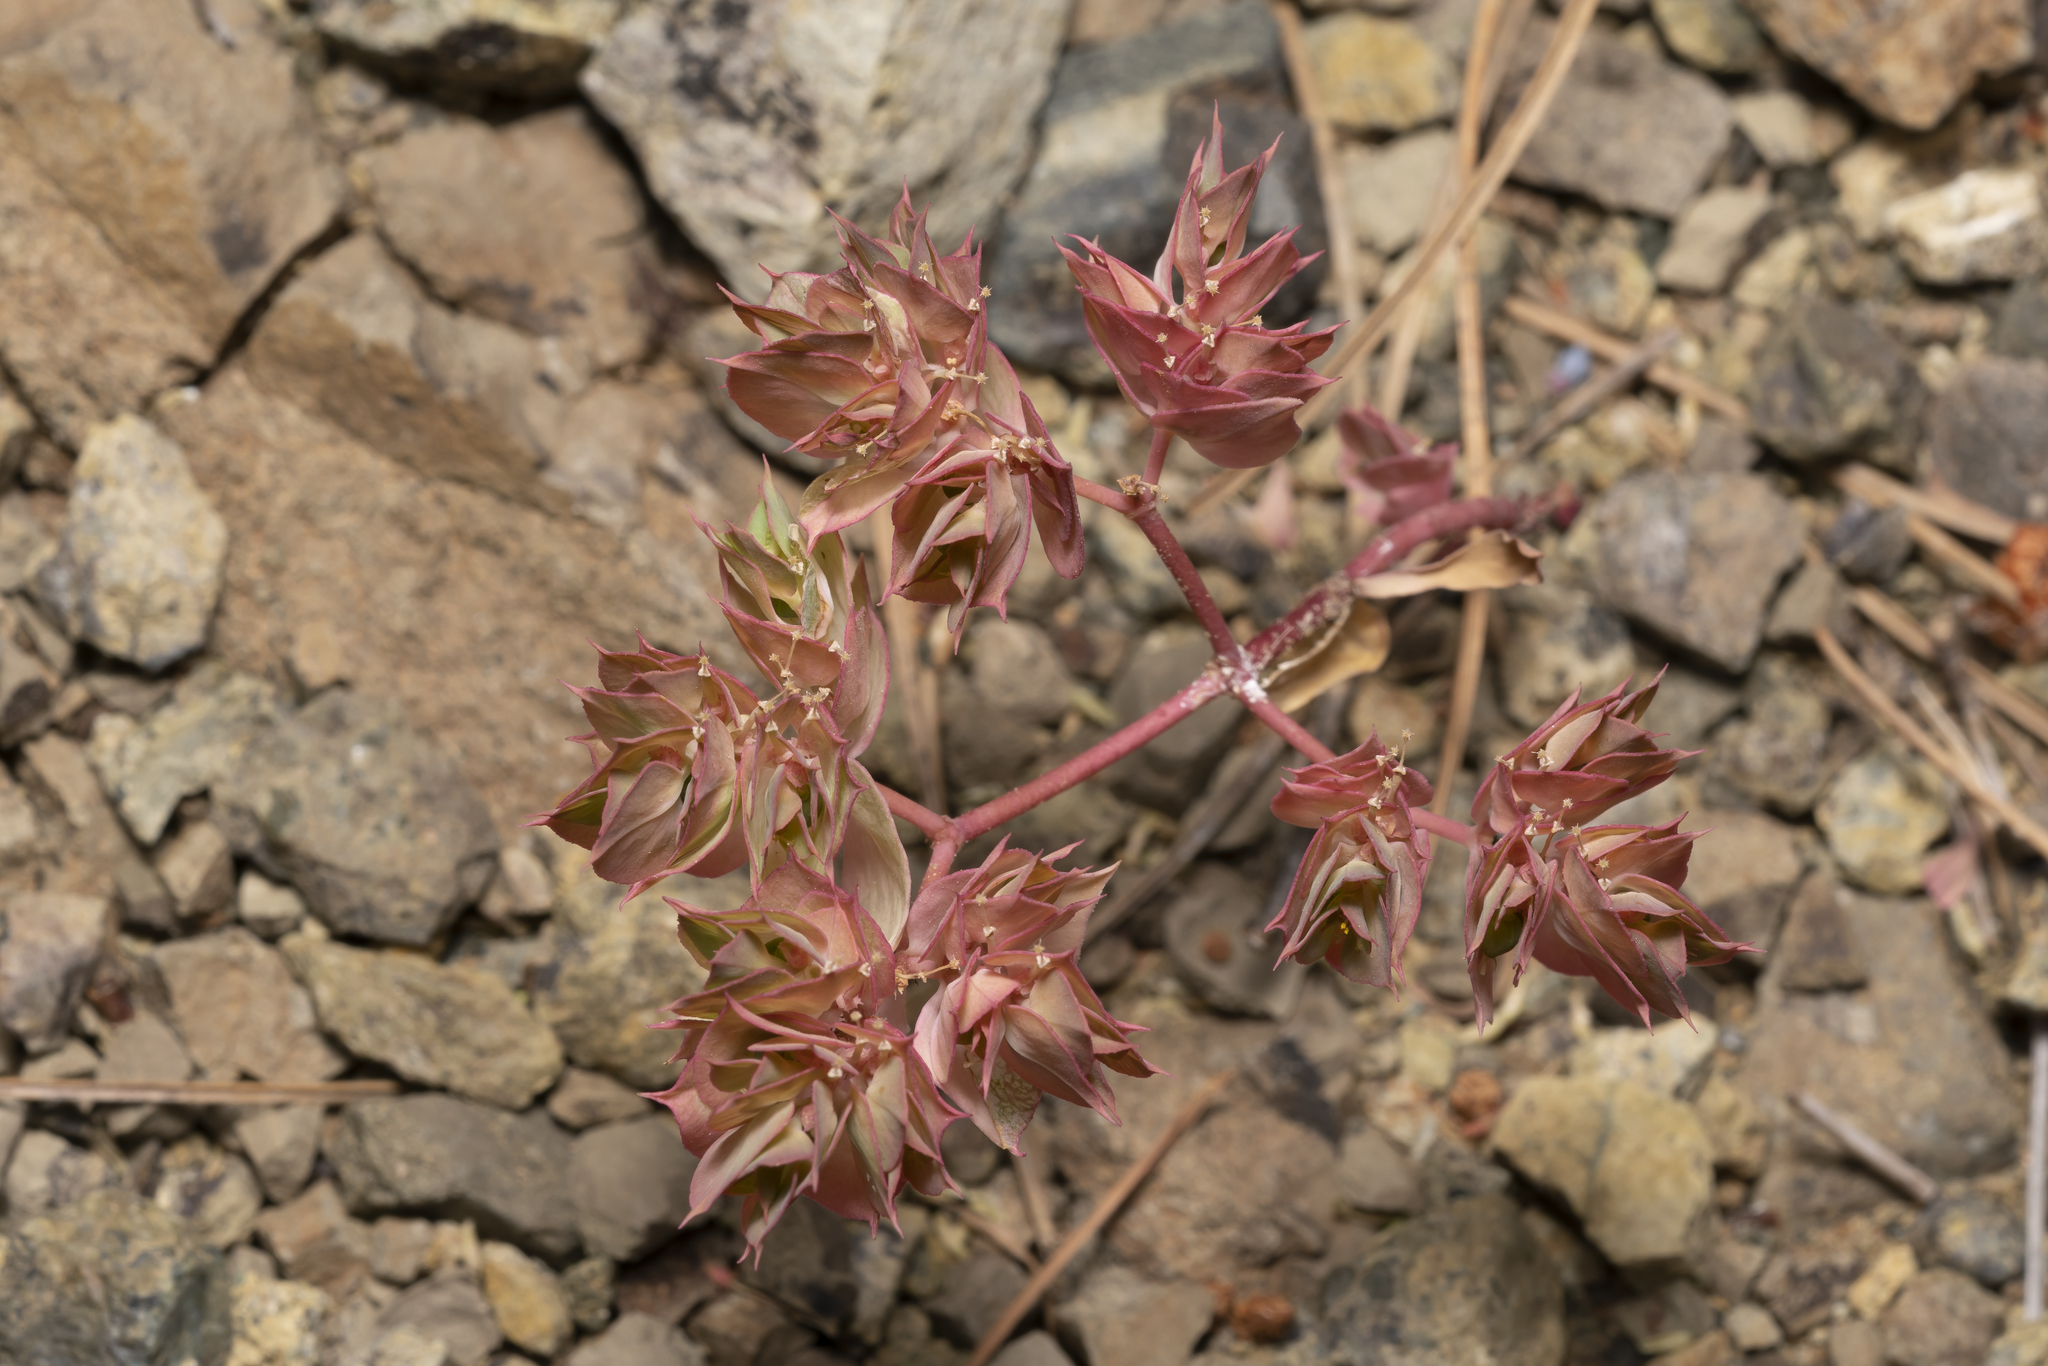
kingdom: Plantae
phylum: Tracheophyta
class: Magnoliopsida
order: Malpighiales
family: Euphorbiaceae
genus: Euphorbia
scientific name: Euphorbia falcata
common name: Sickle spurge
